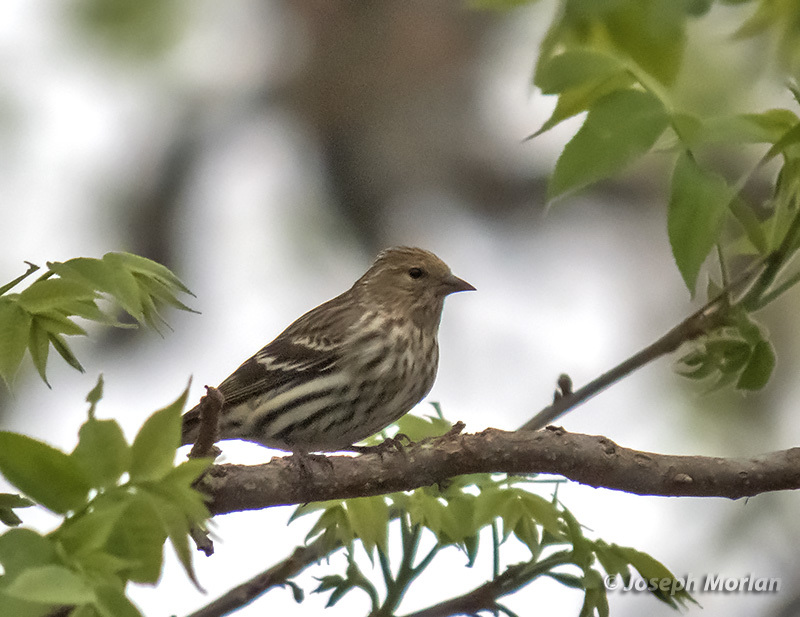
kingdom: Animalia
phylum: Chordata
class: Aves
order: Passeriformes
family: Fringillidae
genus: Spinus
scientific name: Spinus pinus
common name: Pine siskin
